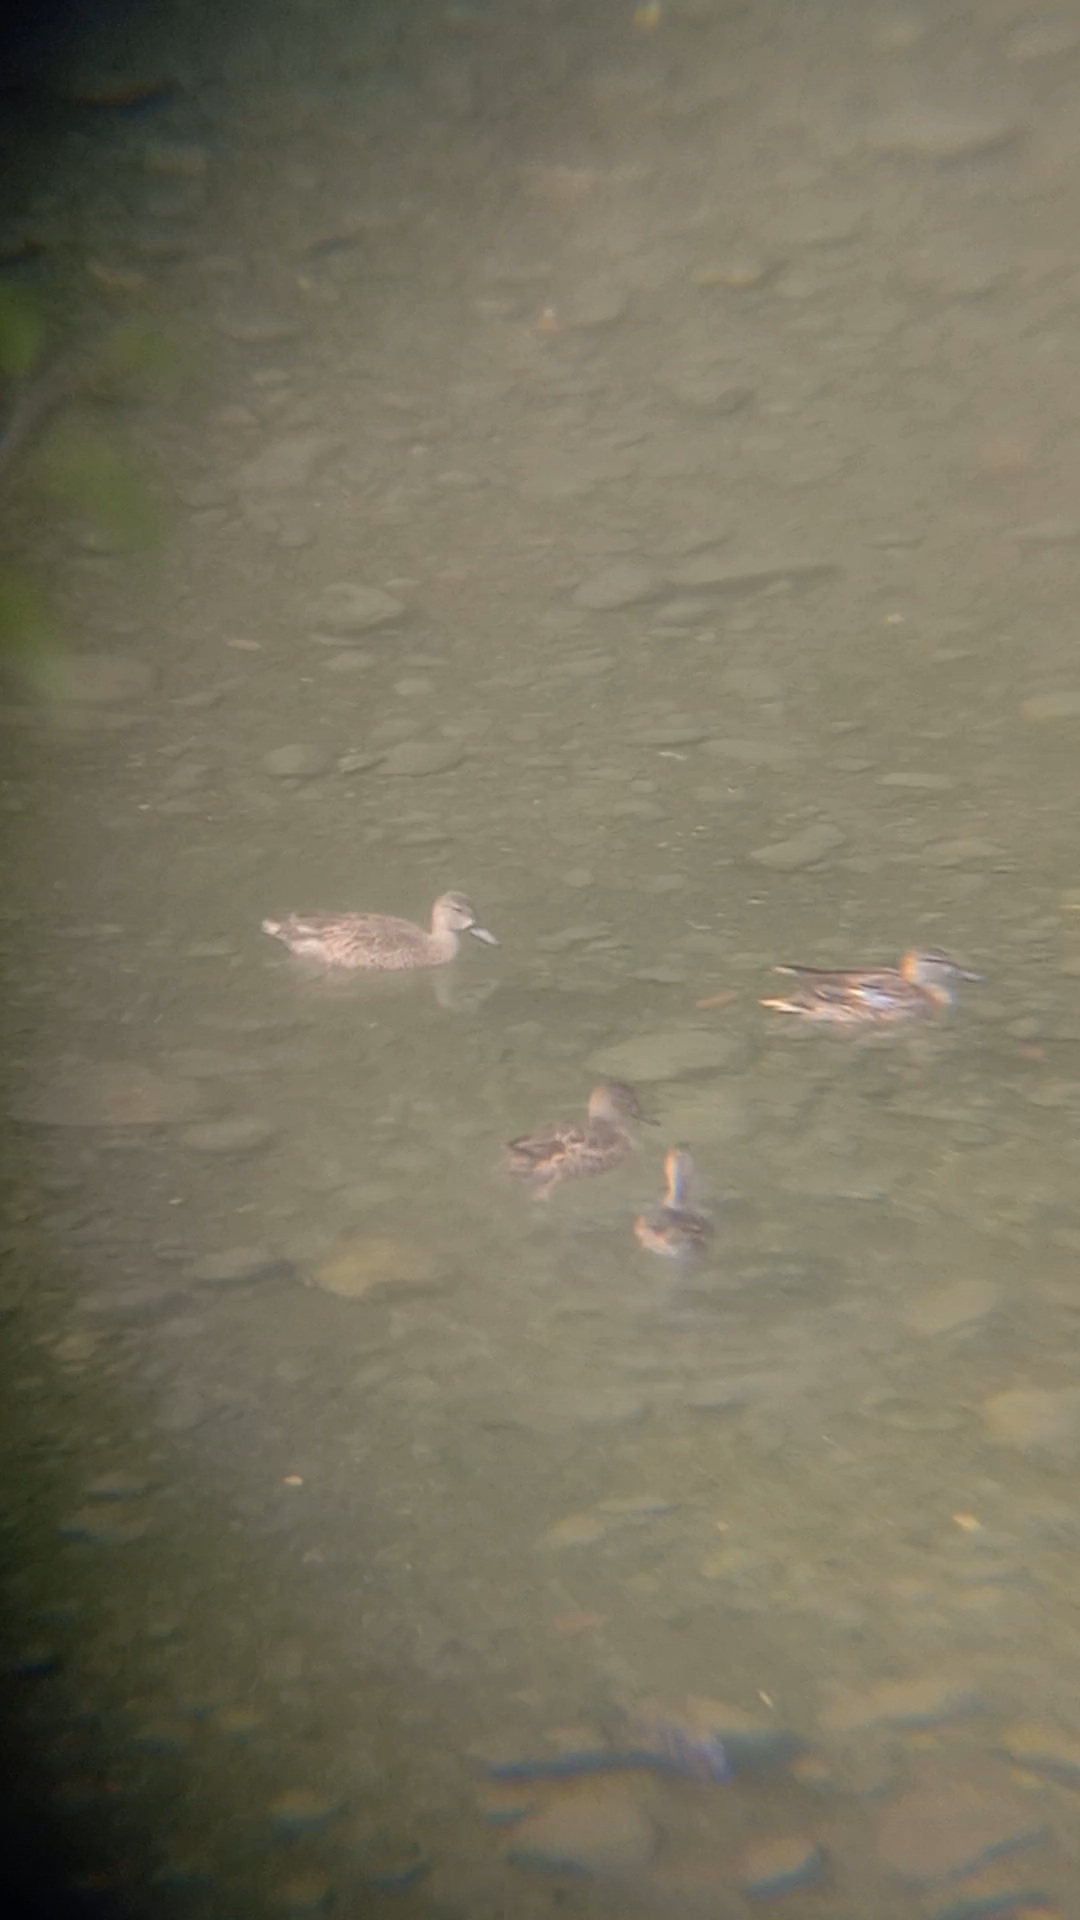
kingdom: Animalia
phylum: Chordata
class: Aves
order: Anseriformes
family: Anatidae
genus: Spatula
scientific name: Spatula discors
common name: Blue-winged teal
